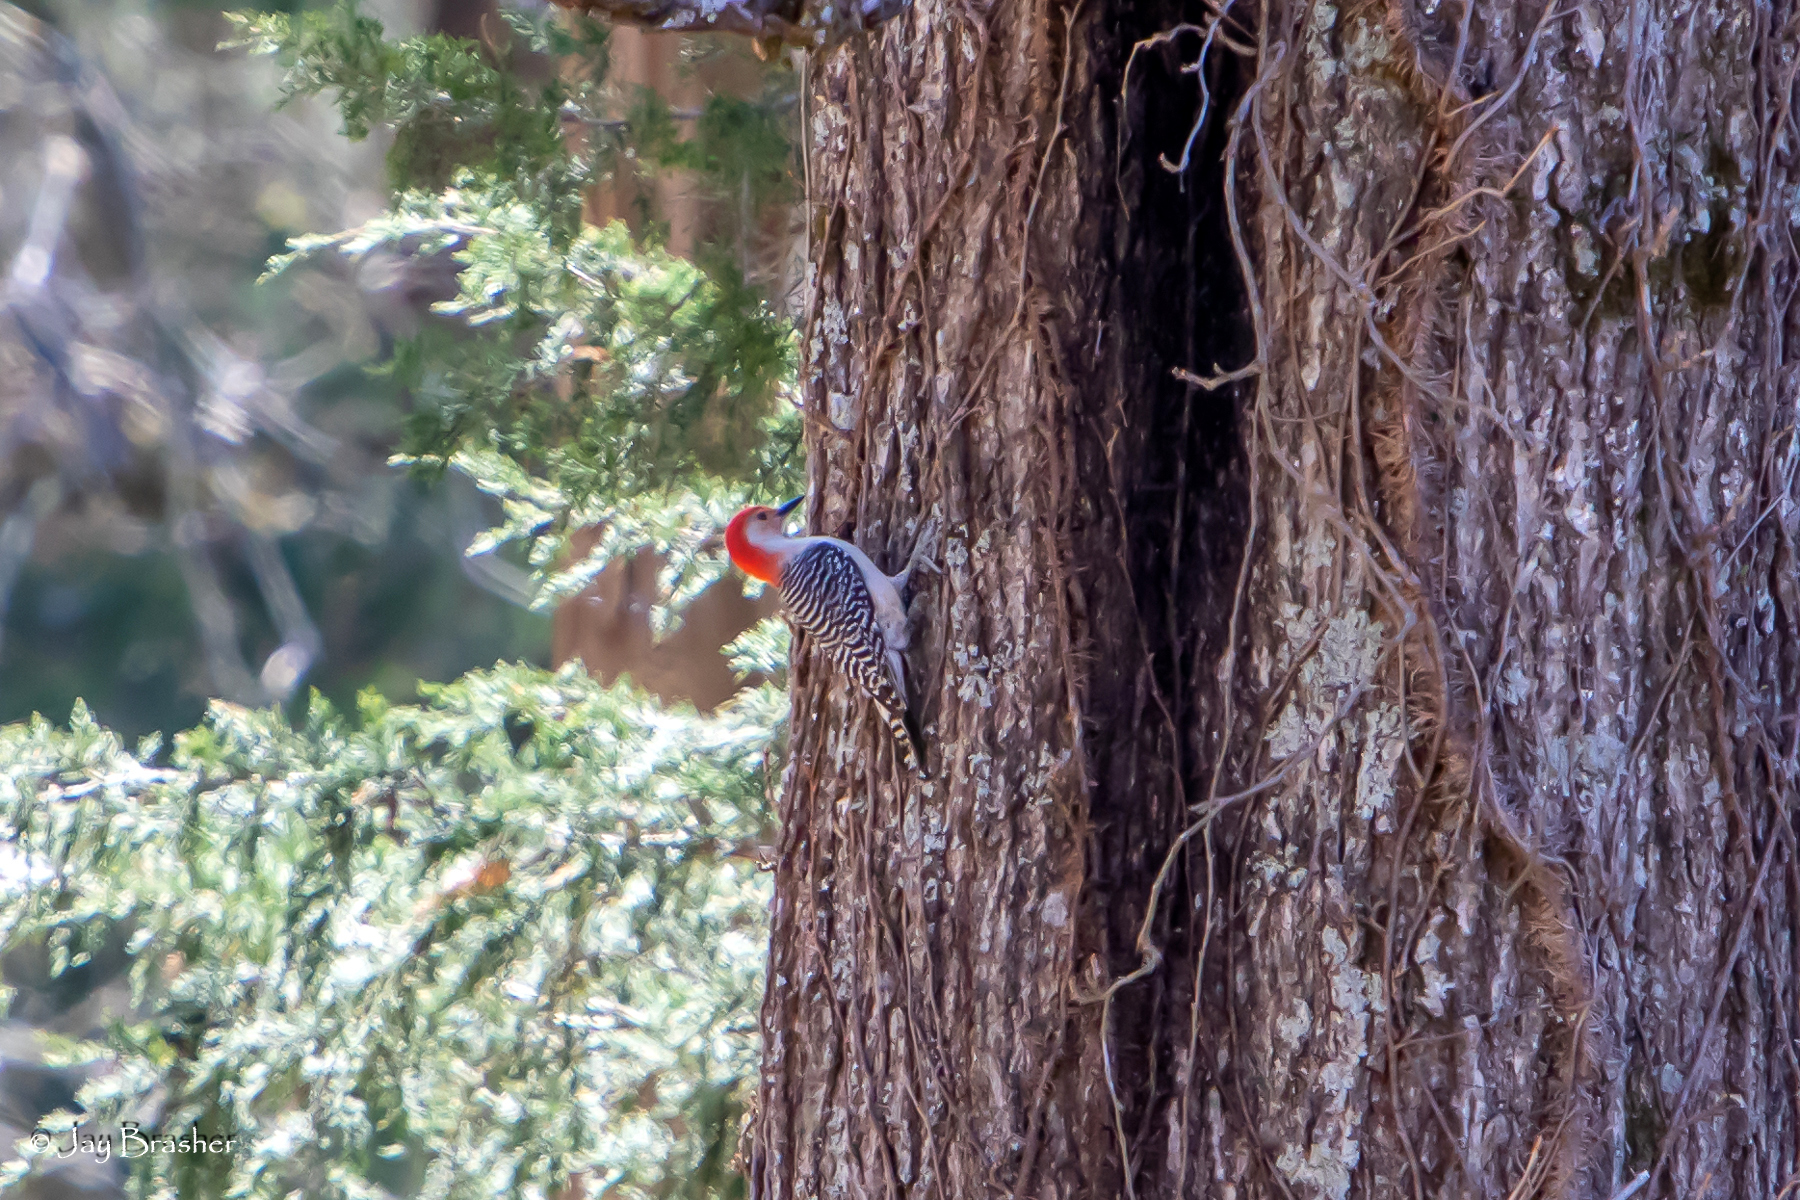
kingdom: Animalia
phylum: Chordata
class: Aves
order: Piciformes
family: Picidae
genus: Melanerpes
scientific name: Melanerpes carolinus
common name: Red-bellied woodpecker
